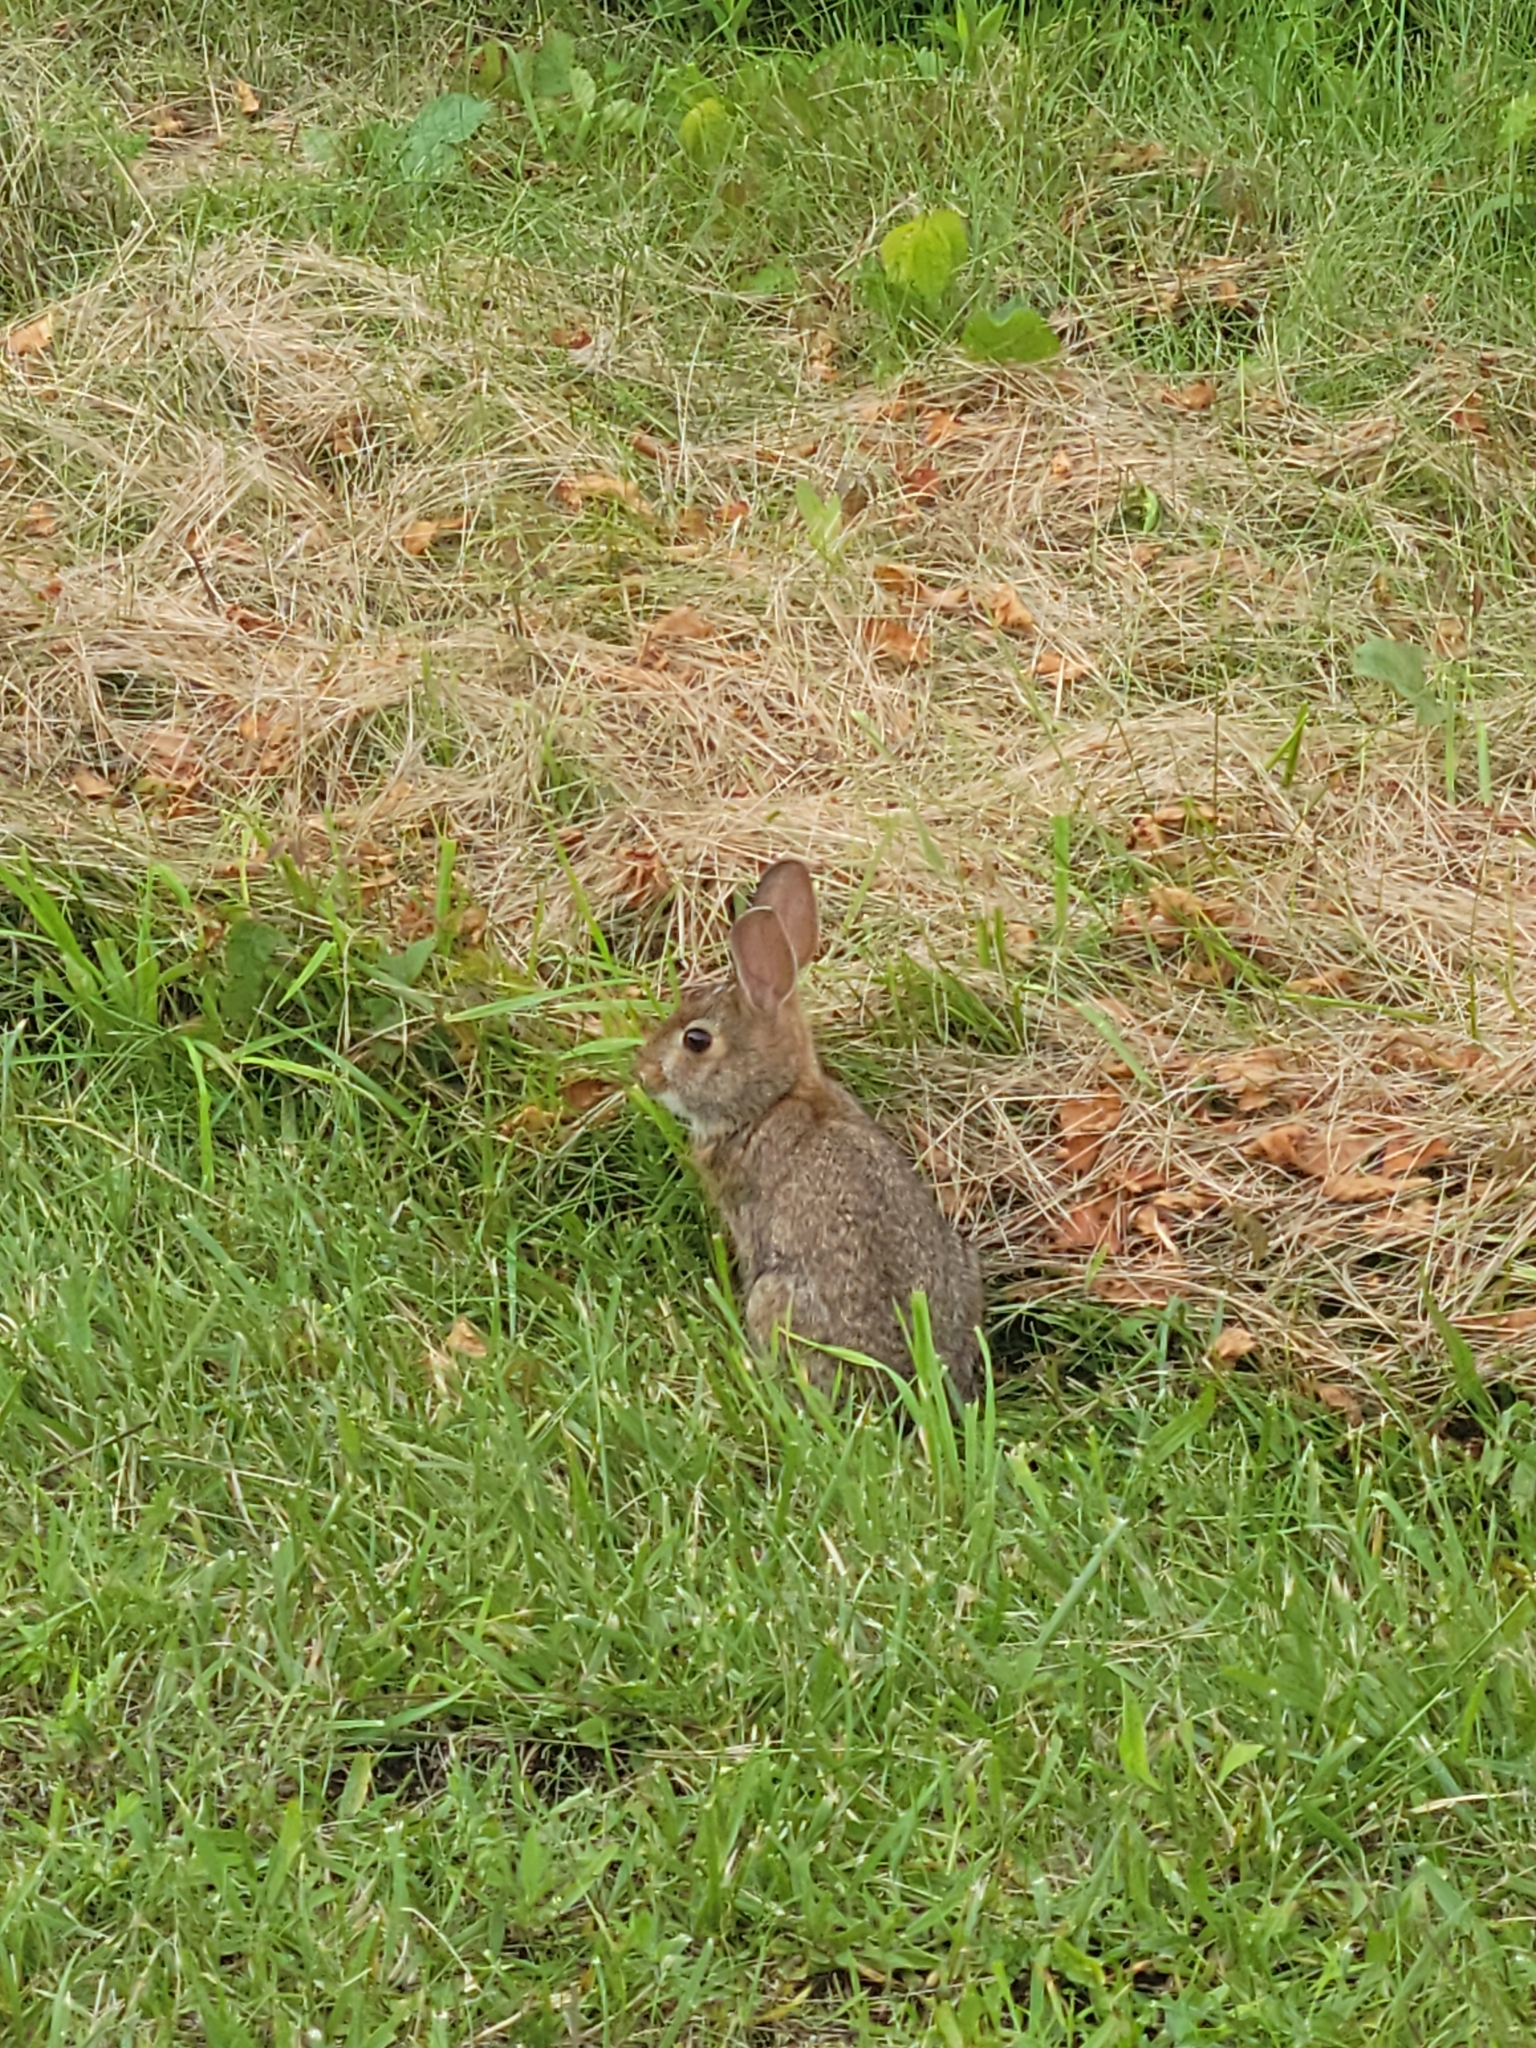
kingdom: Animalia
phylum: Chordata
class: Mammalia
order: Lagomorpha
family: Leporidae
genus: Sylvilagus
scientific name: Sylvilagus floridanus
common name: Eastern cottontail
